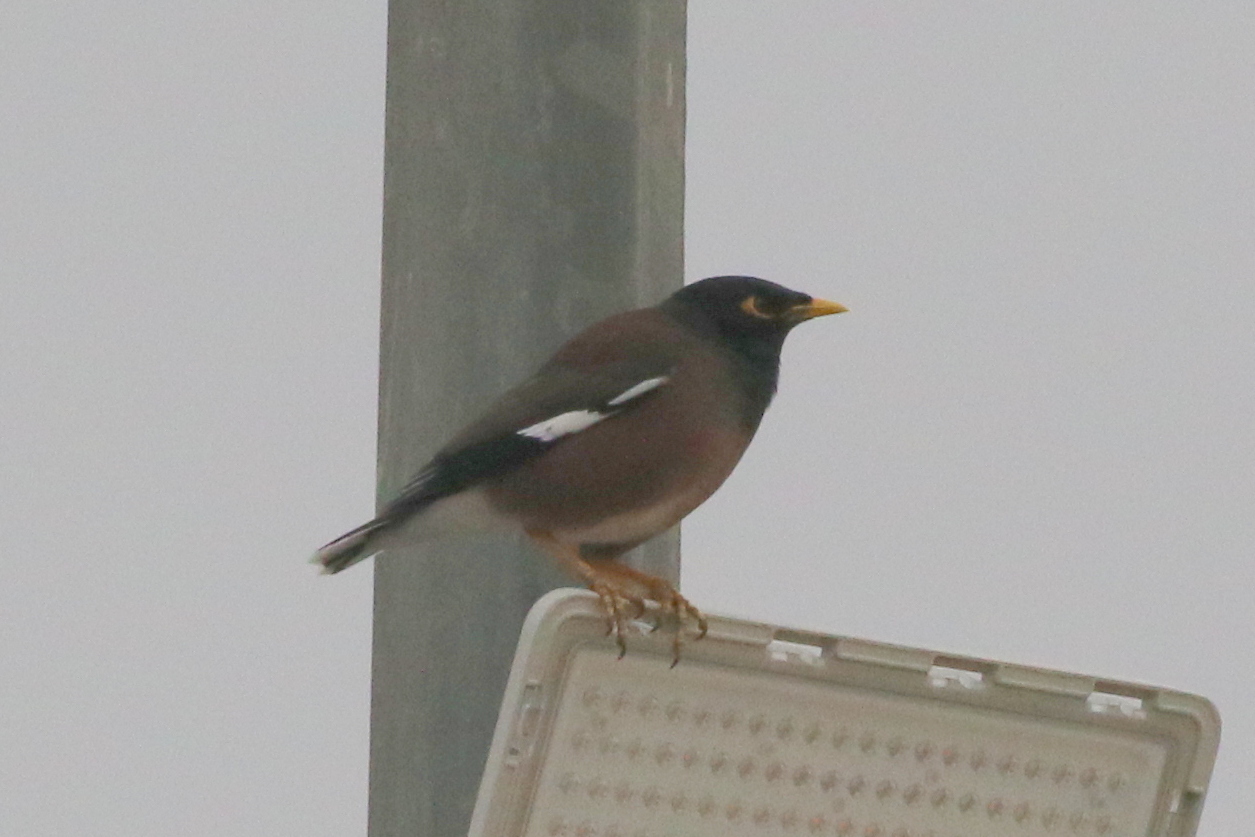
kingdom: Animalia
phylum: Chordata
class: Aves
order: Passeriformes
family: Sturnidae
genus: Acridotheres
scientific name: Acridotheres tristis
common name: Common myna
